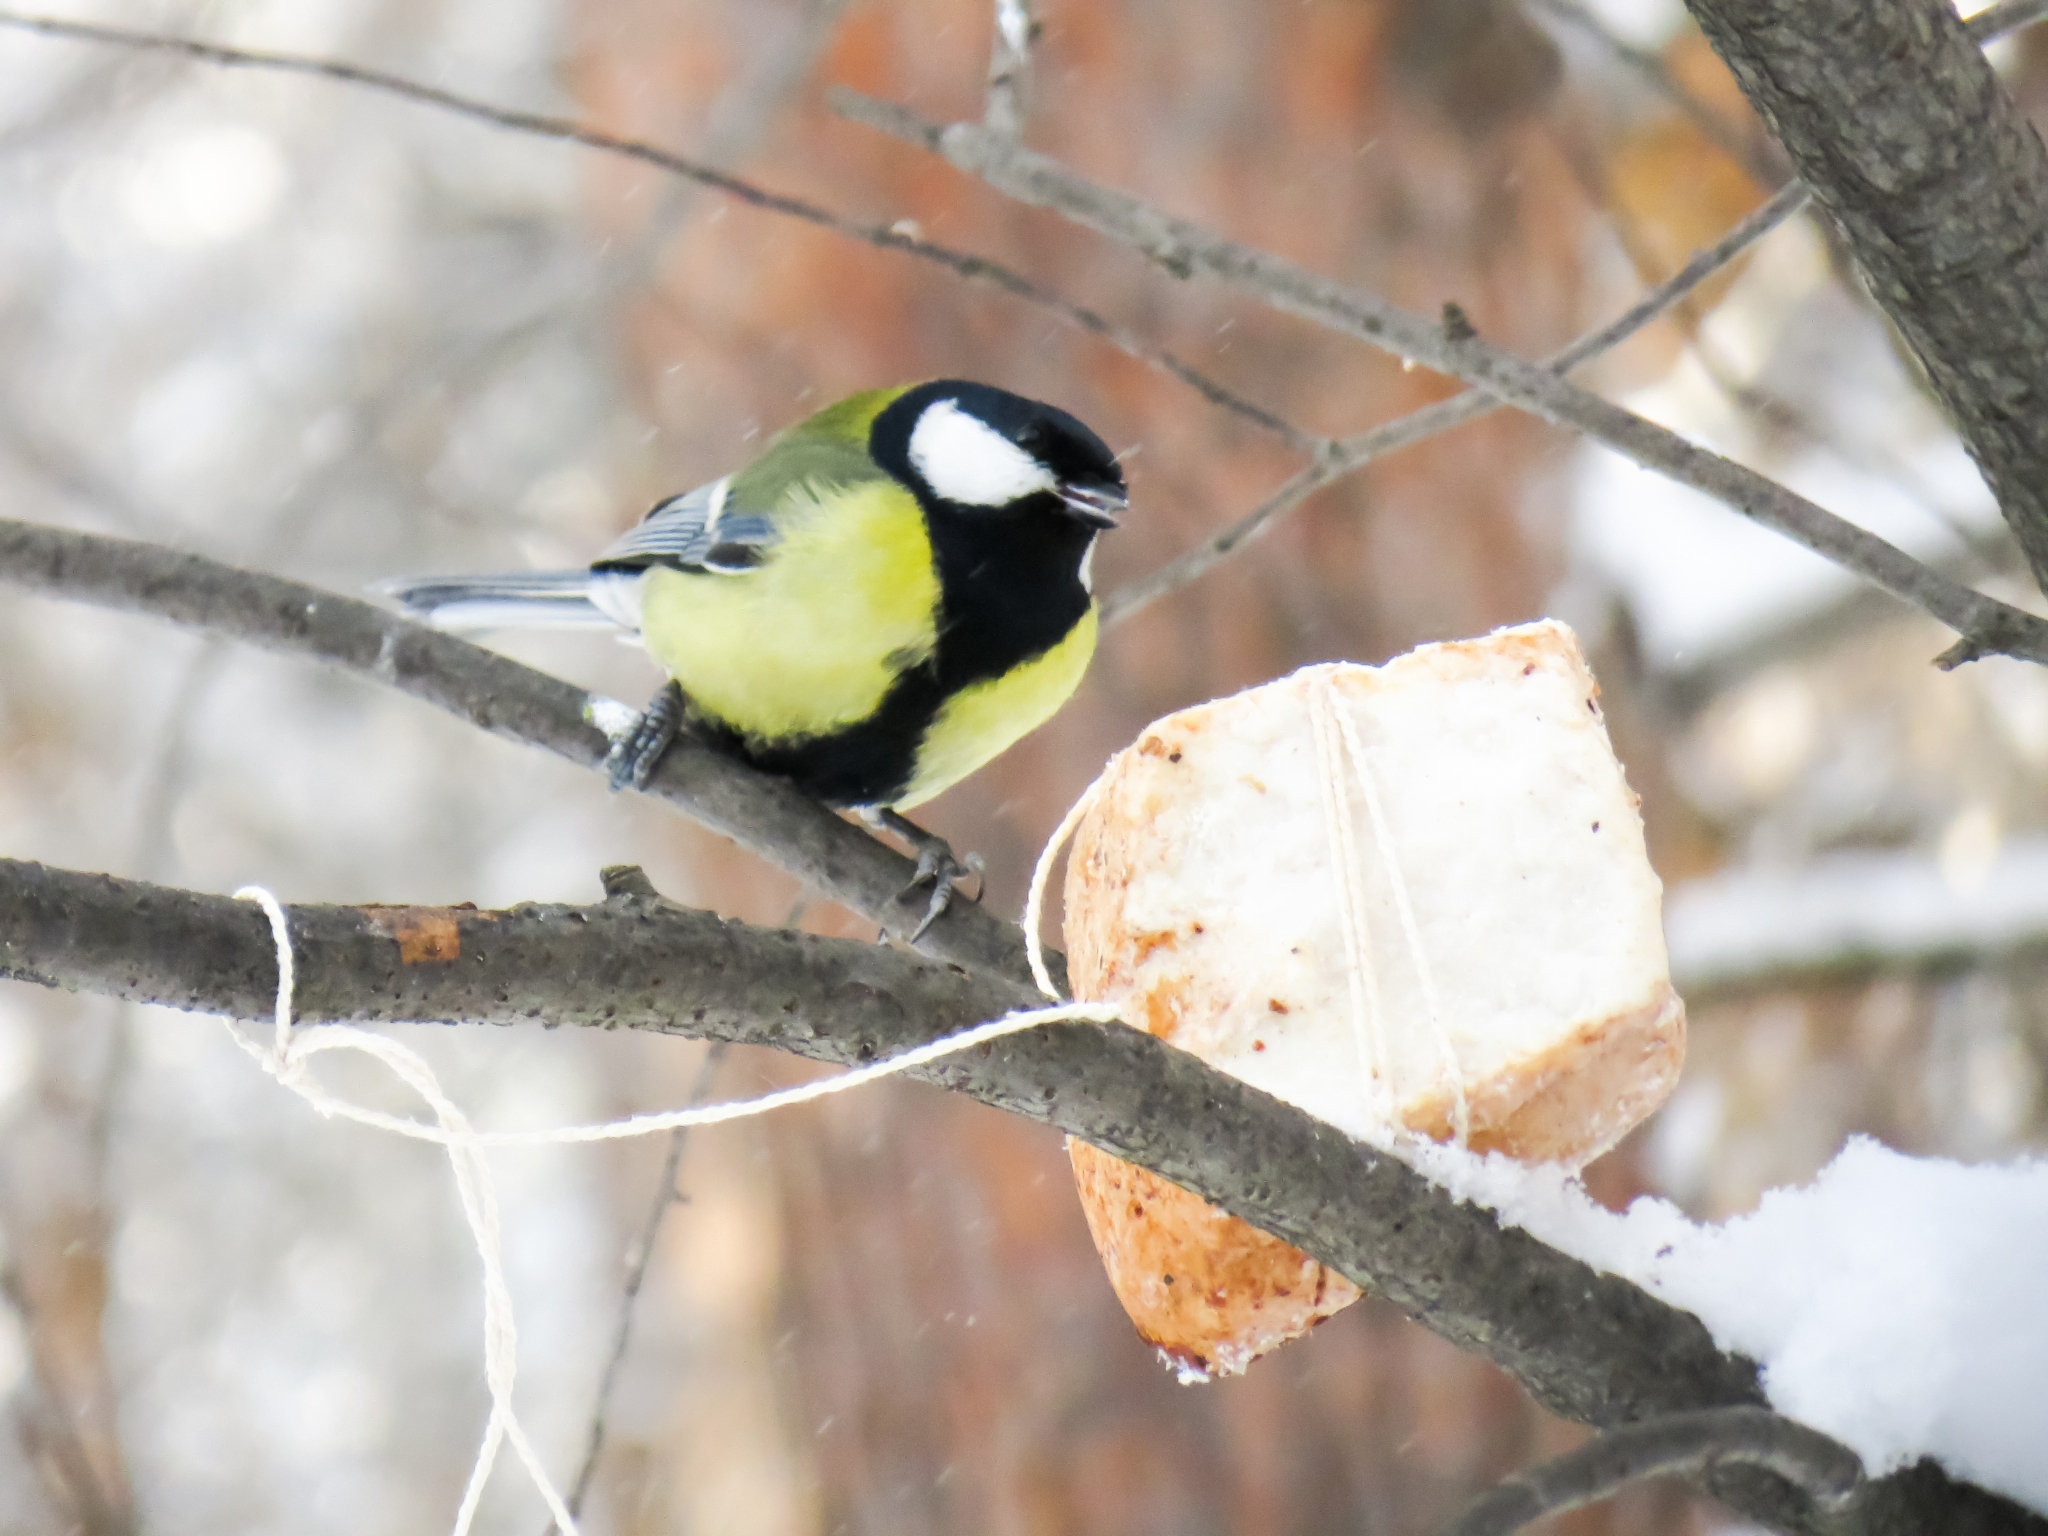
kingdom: Animalia
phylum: Chordata
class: Aves
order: Passeriformes
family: Paridae
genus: Parus
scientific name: Parus major
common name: Great tit
